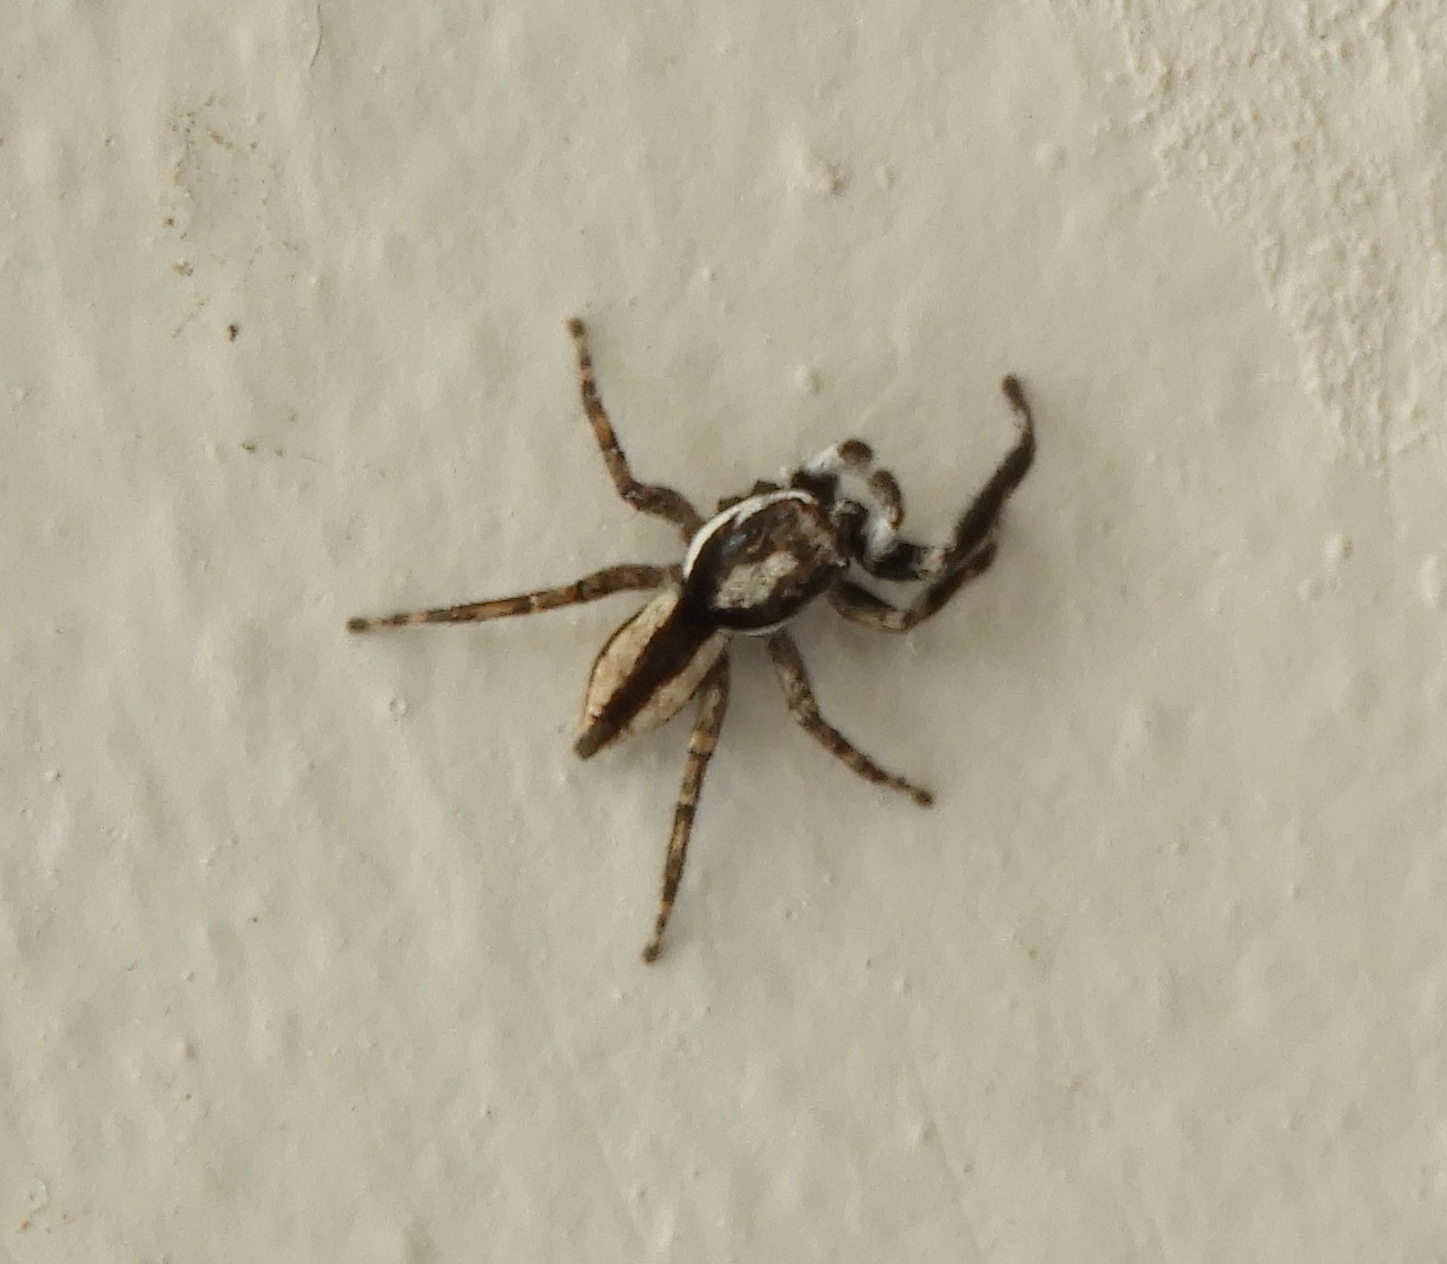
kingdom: Animalia
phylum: Arthropoda
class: Arachnida
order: Araneae
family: Salticidae
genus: Menemerus
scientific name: Menemerus bivittatus
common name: Gray wall jumper
